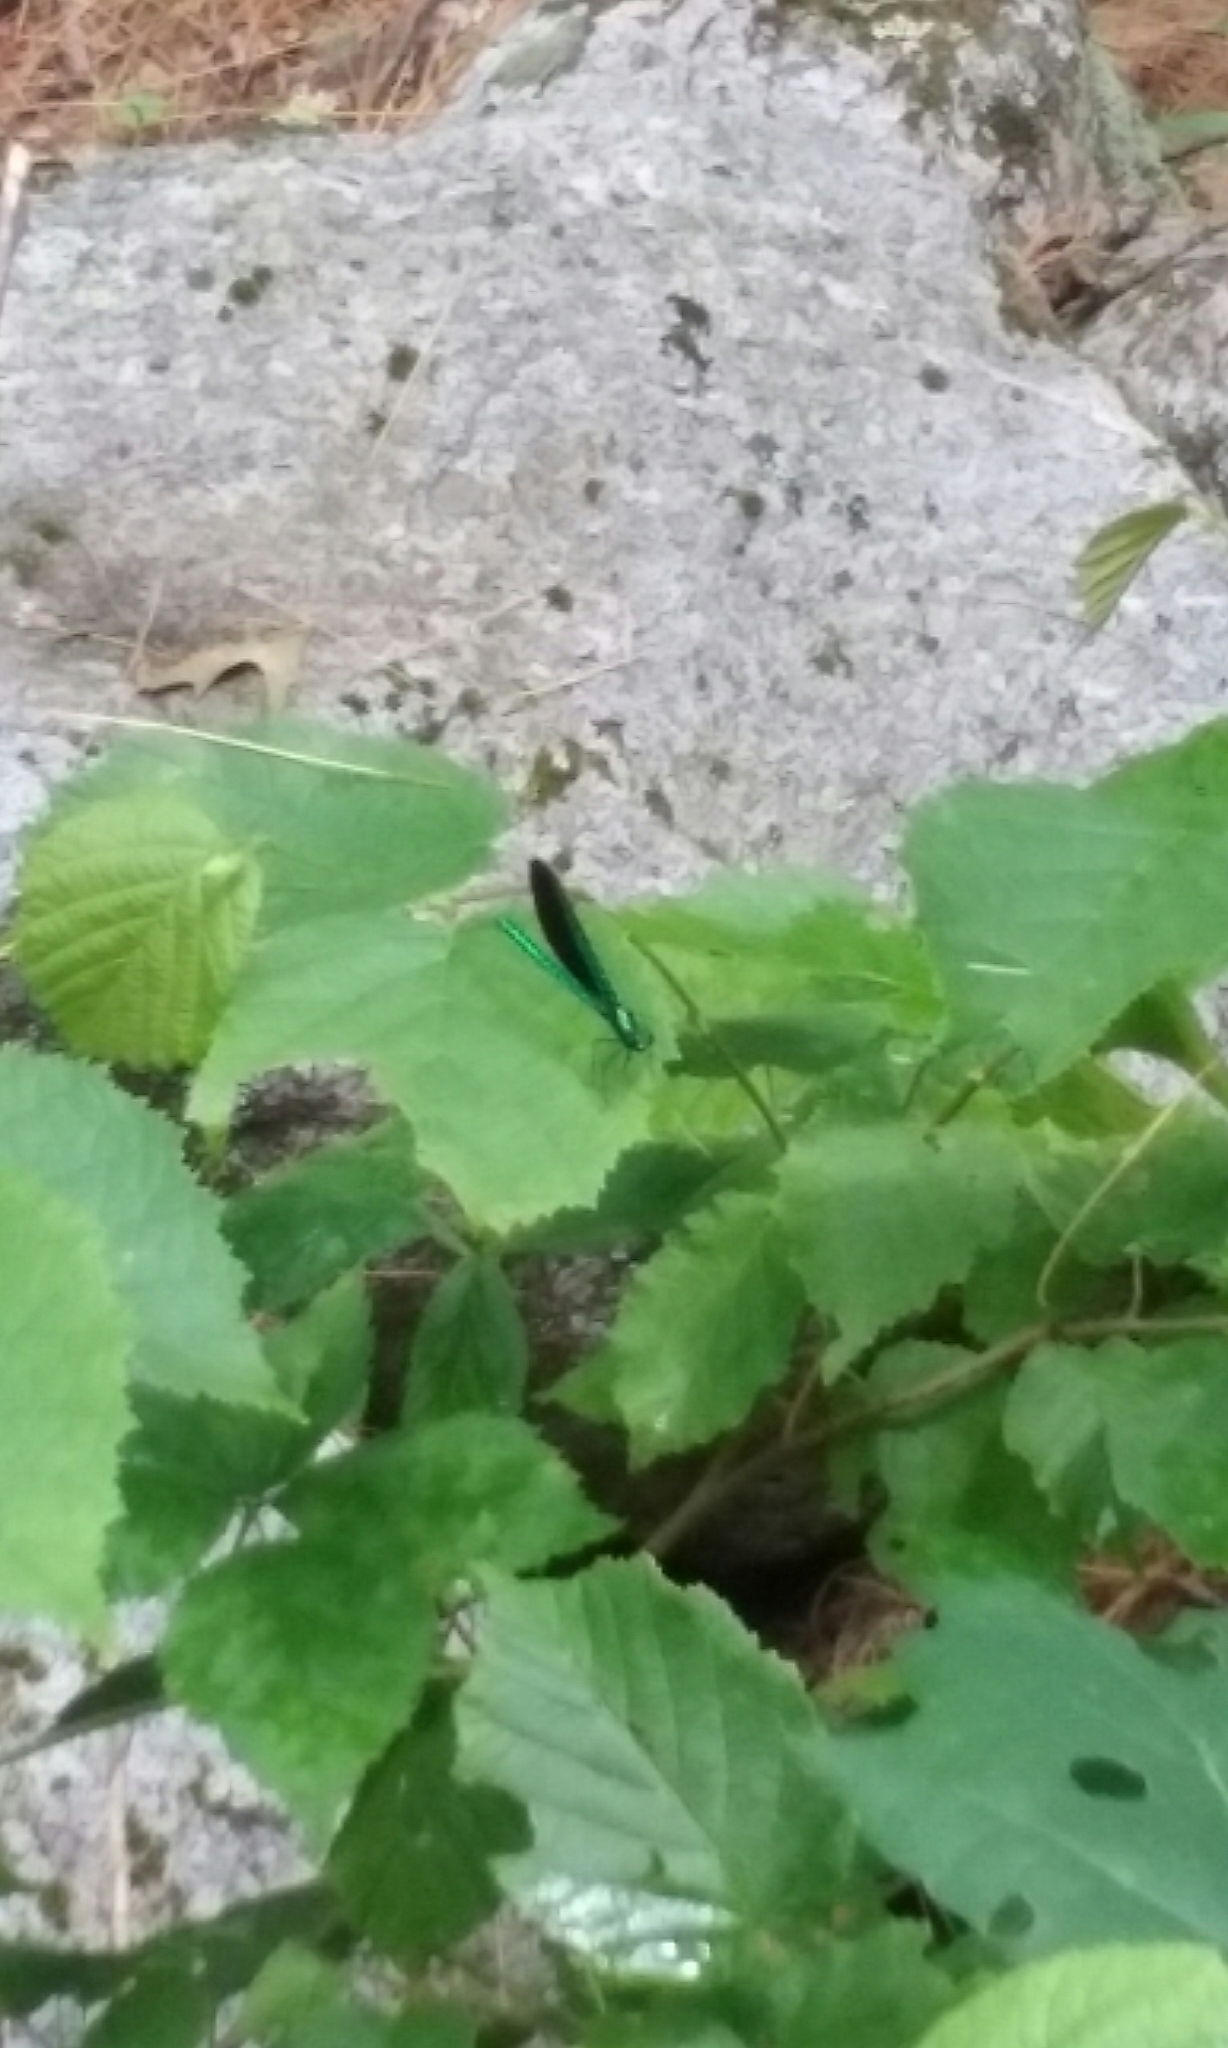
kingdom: Animalia
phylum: Arthropoda
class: Insecta
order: Odonata
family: Calopterygidae
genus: Calopteryx
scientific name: Calopteryx maculata
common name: Ebony jewelwing
